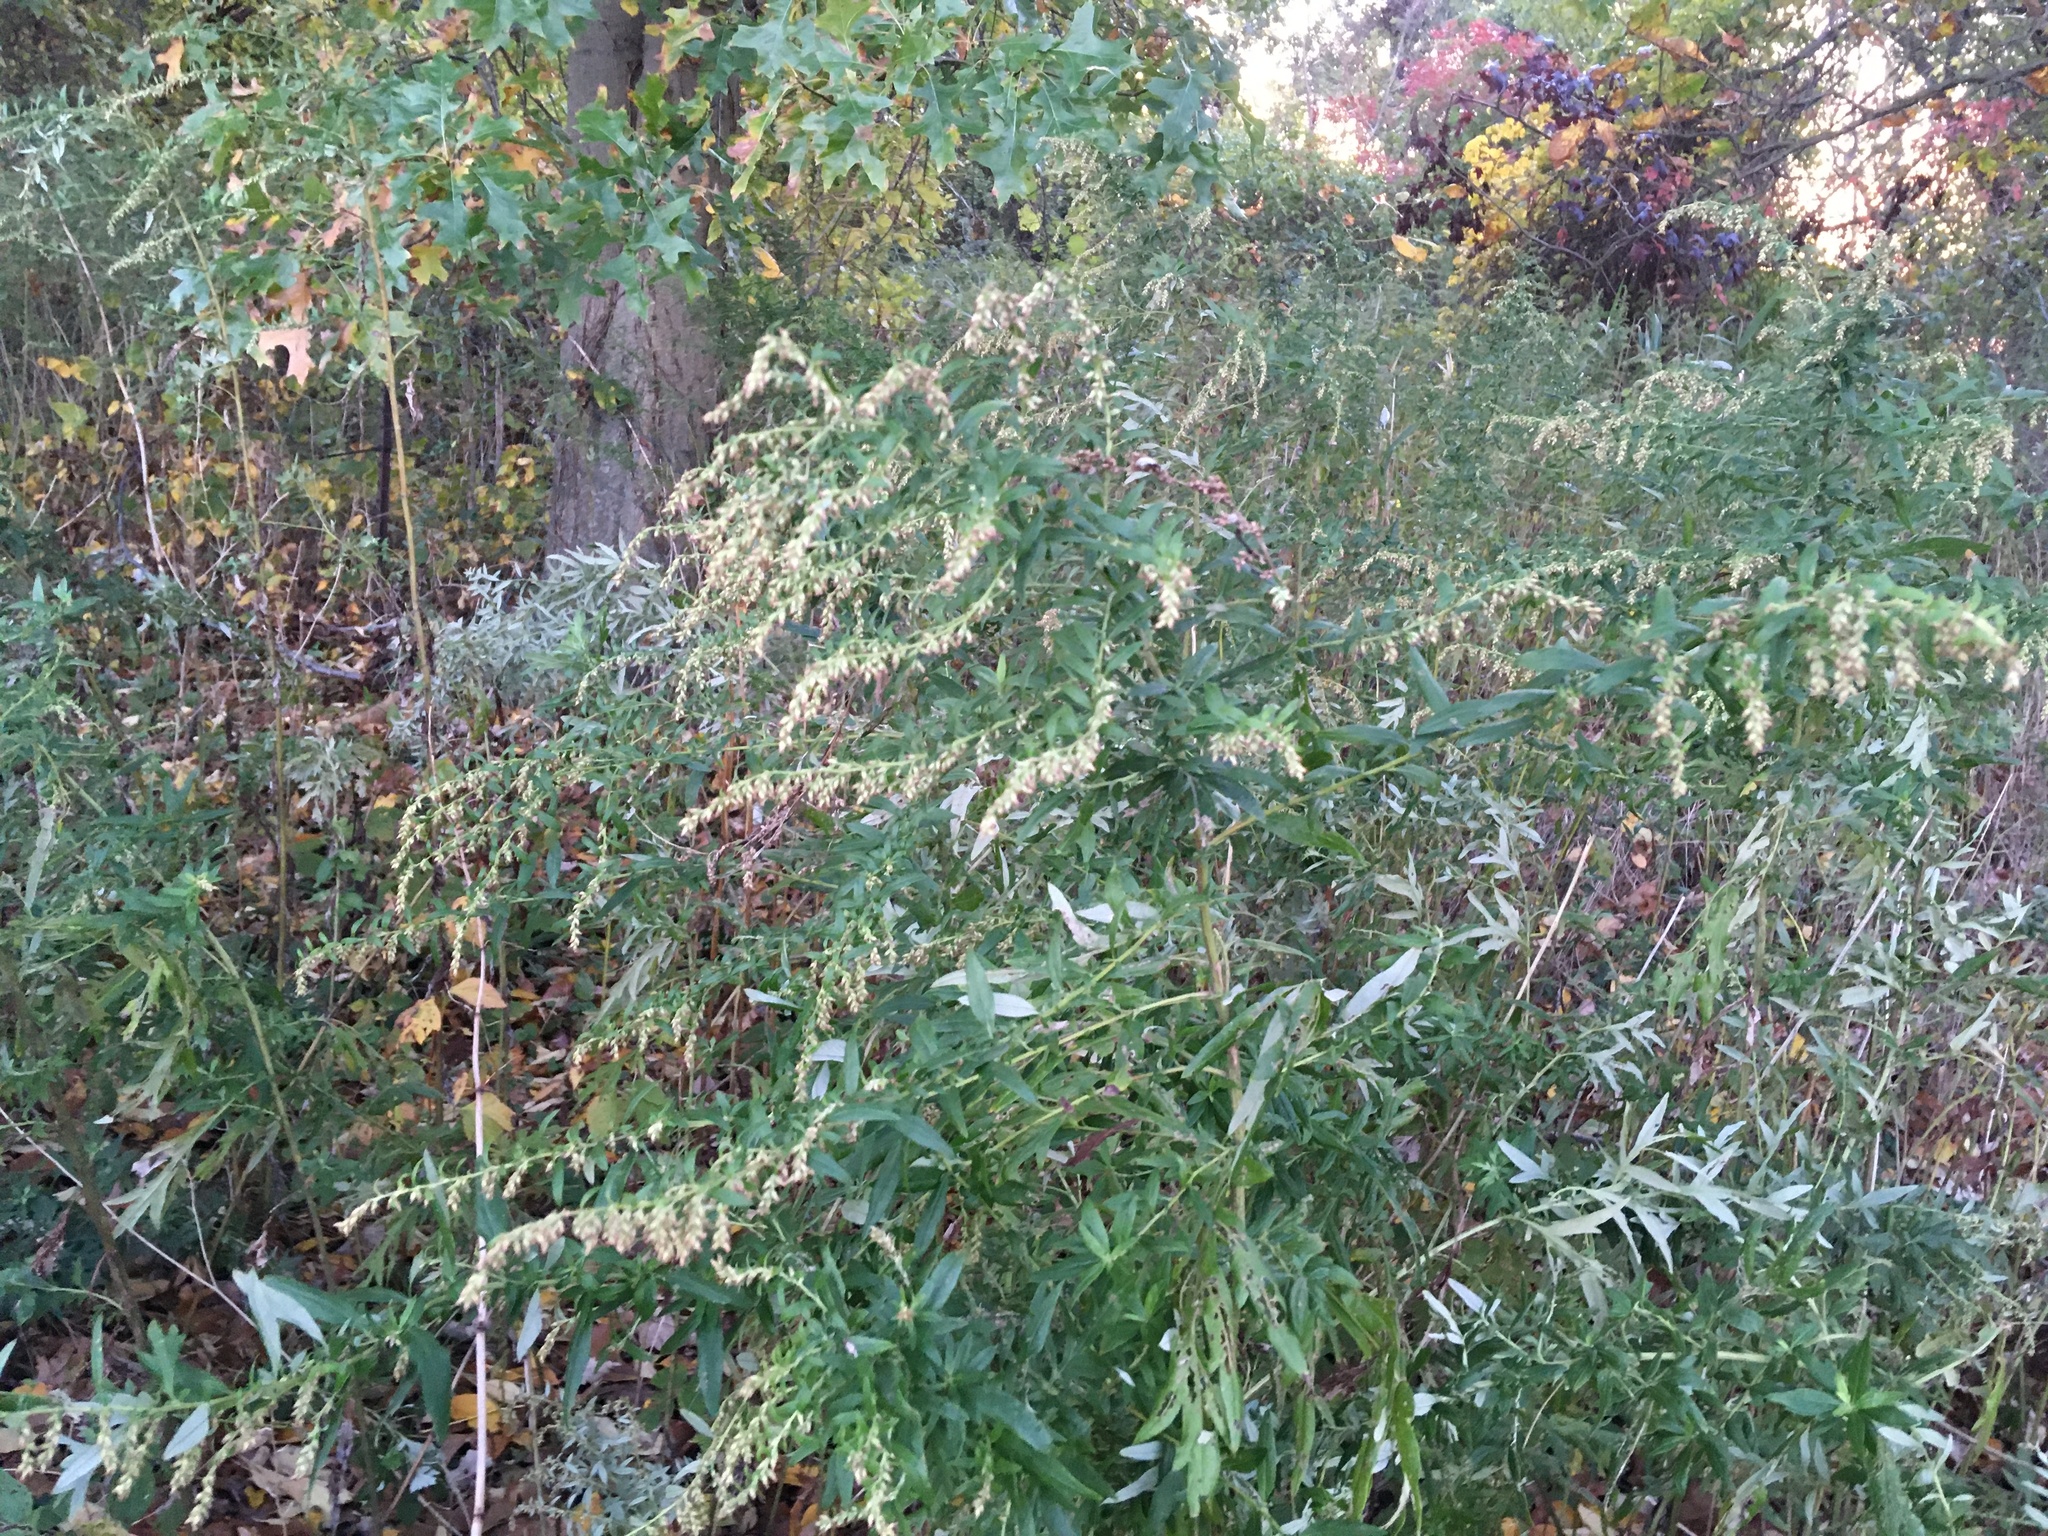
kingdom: Plantae
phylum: Tracheophyta
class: Magnoliopsida
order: Asterales
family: Asteraceae
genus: Artemisia
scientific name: Artemisia vulgaris
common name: Mugwort
